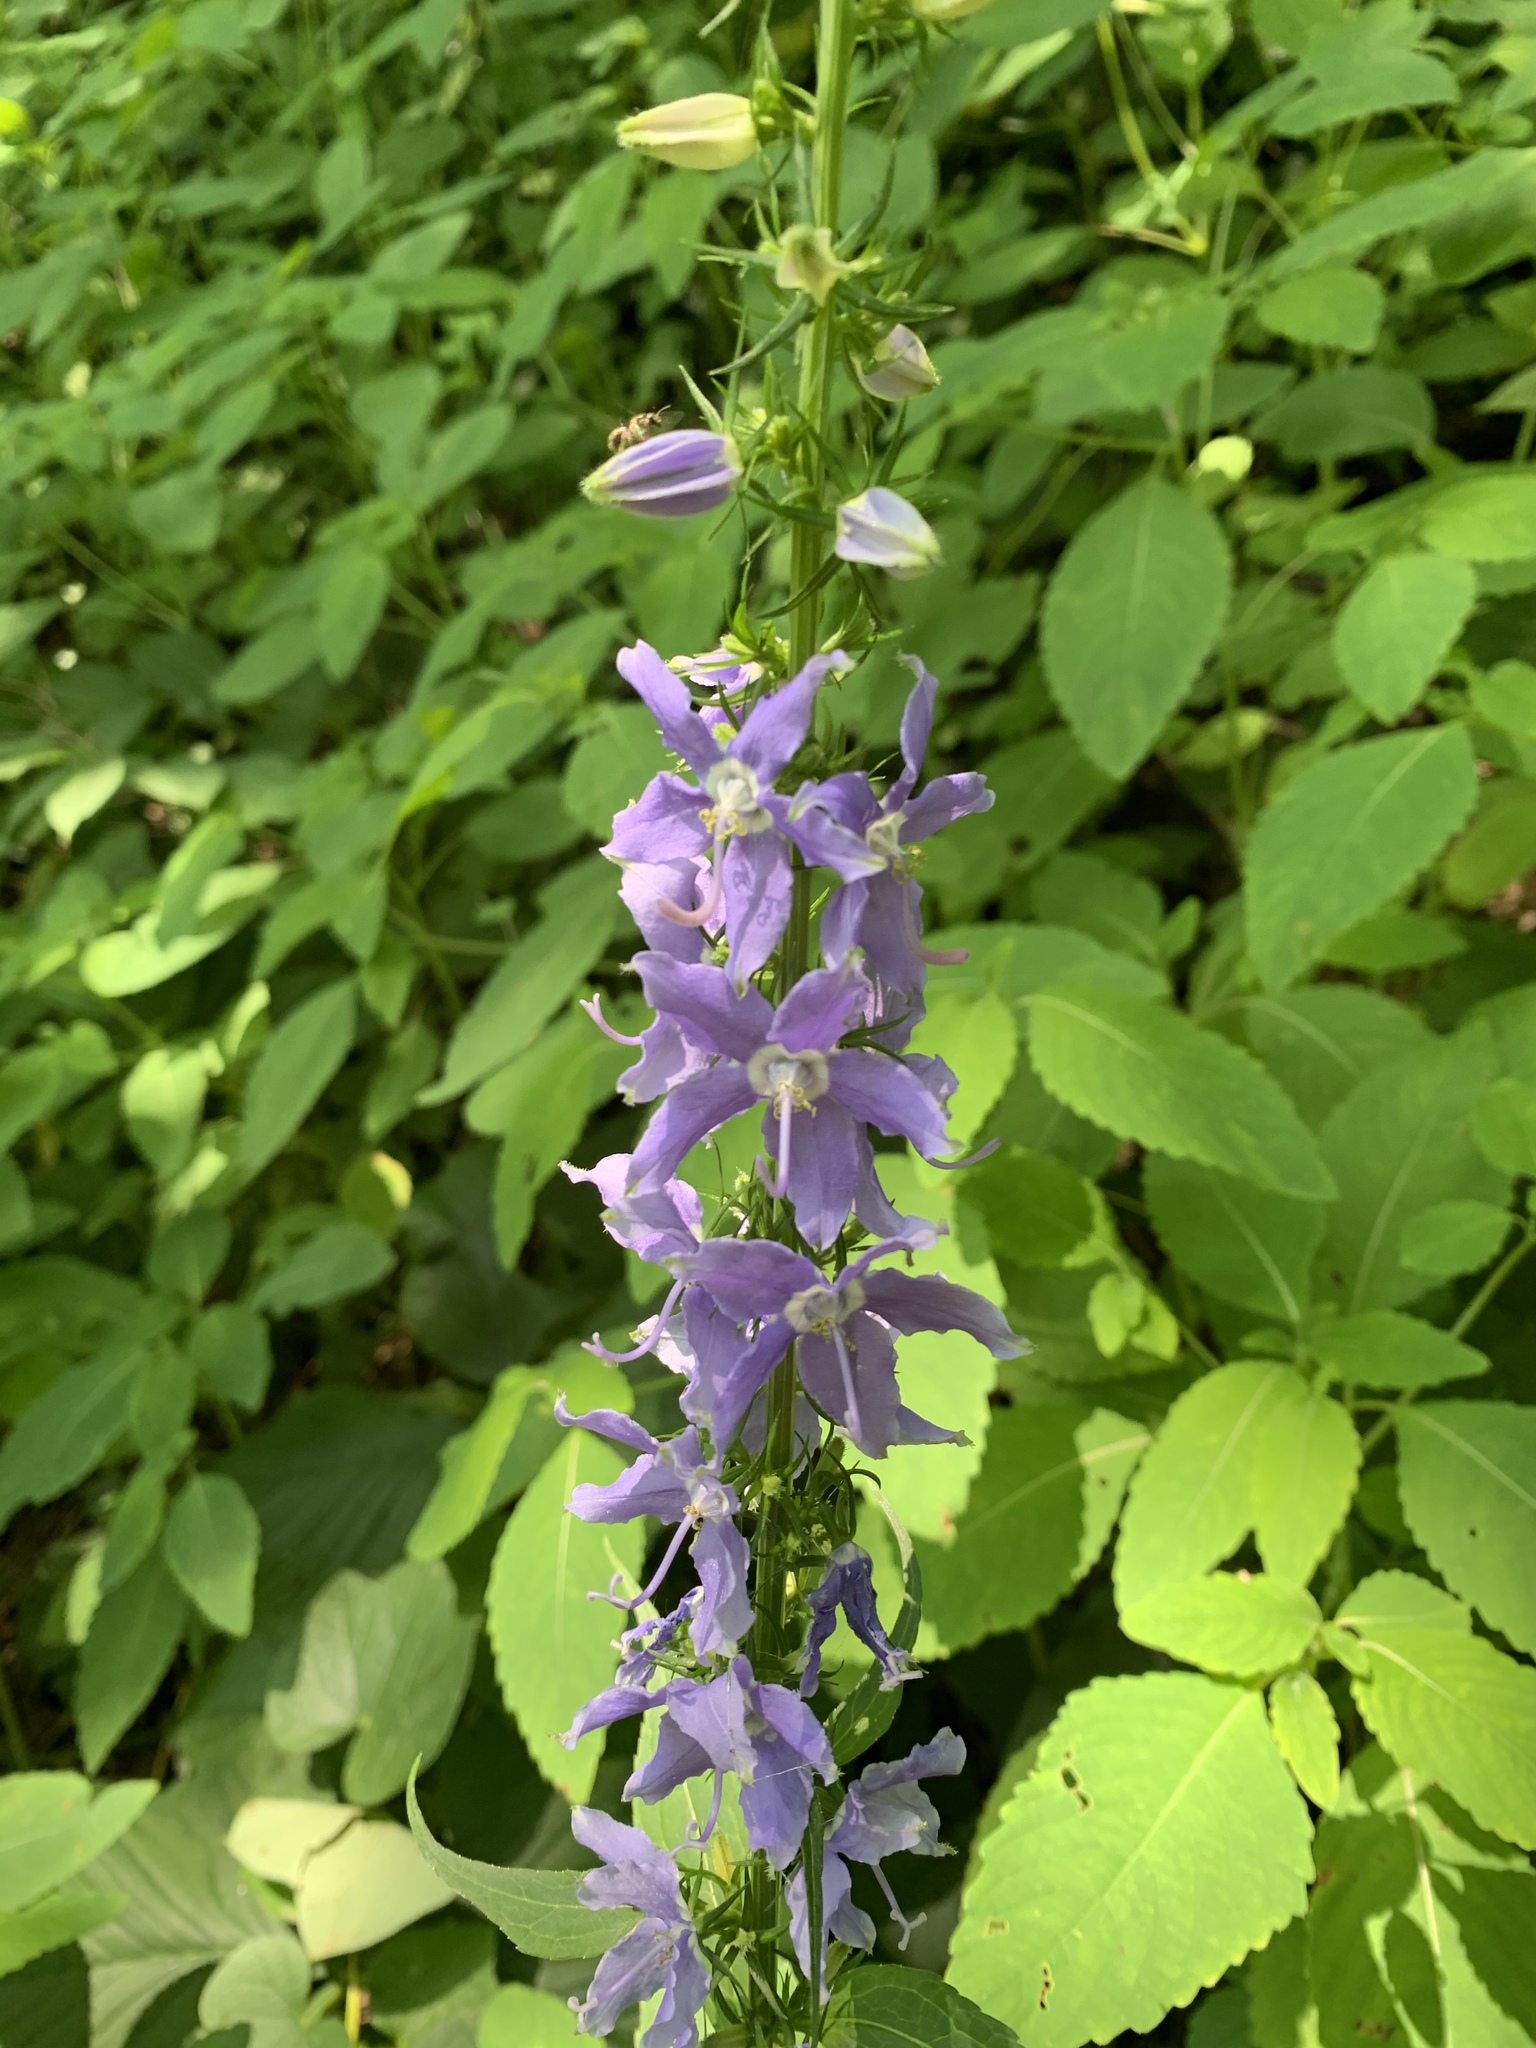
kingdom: Plantae
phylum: Tracheophyta
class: Magnoliopsida
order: Asterales
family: Campanulaceae
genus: Campanulastrum
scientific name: Campanulastrum americanum
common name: American bellflower
